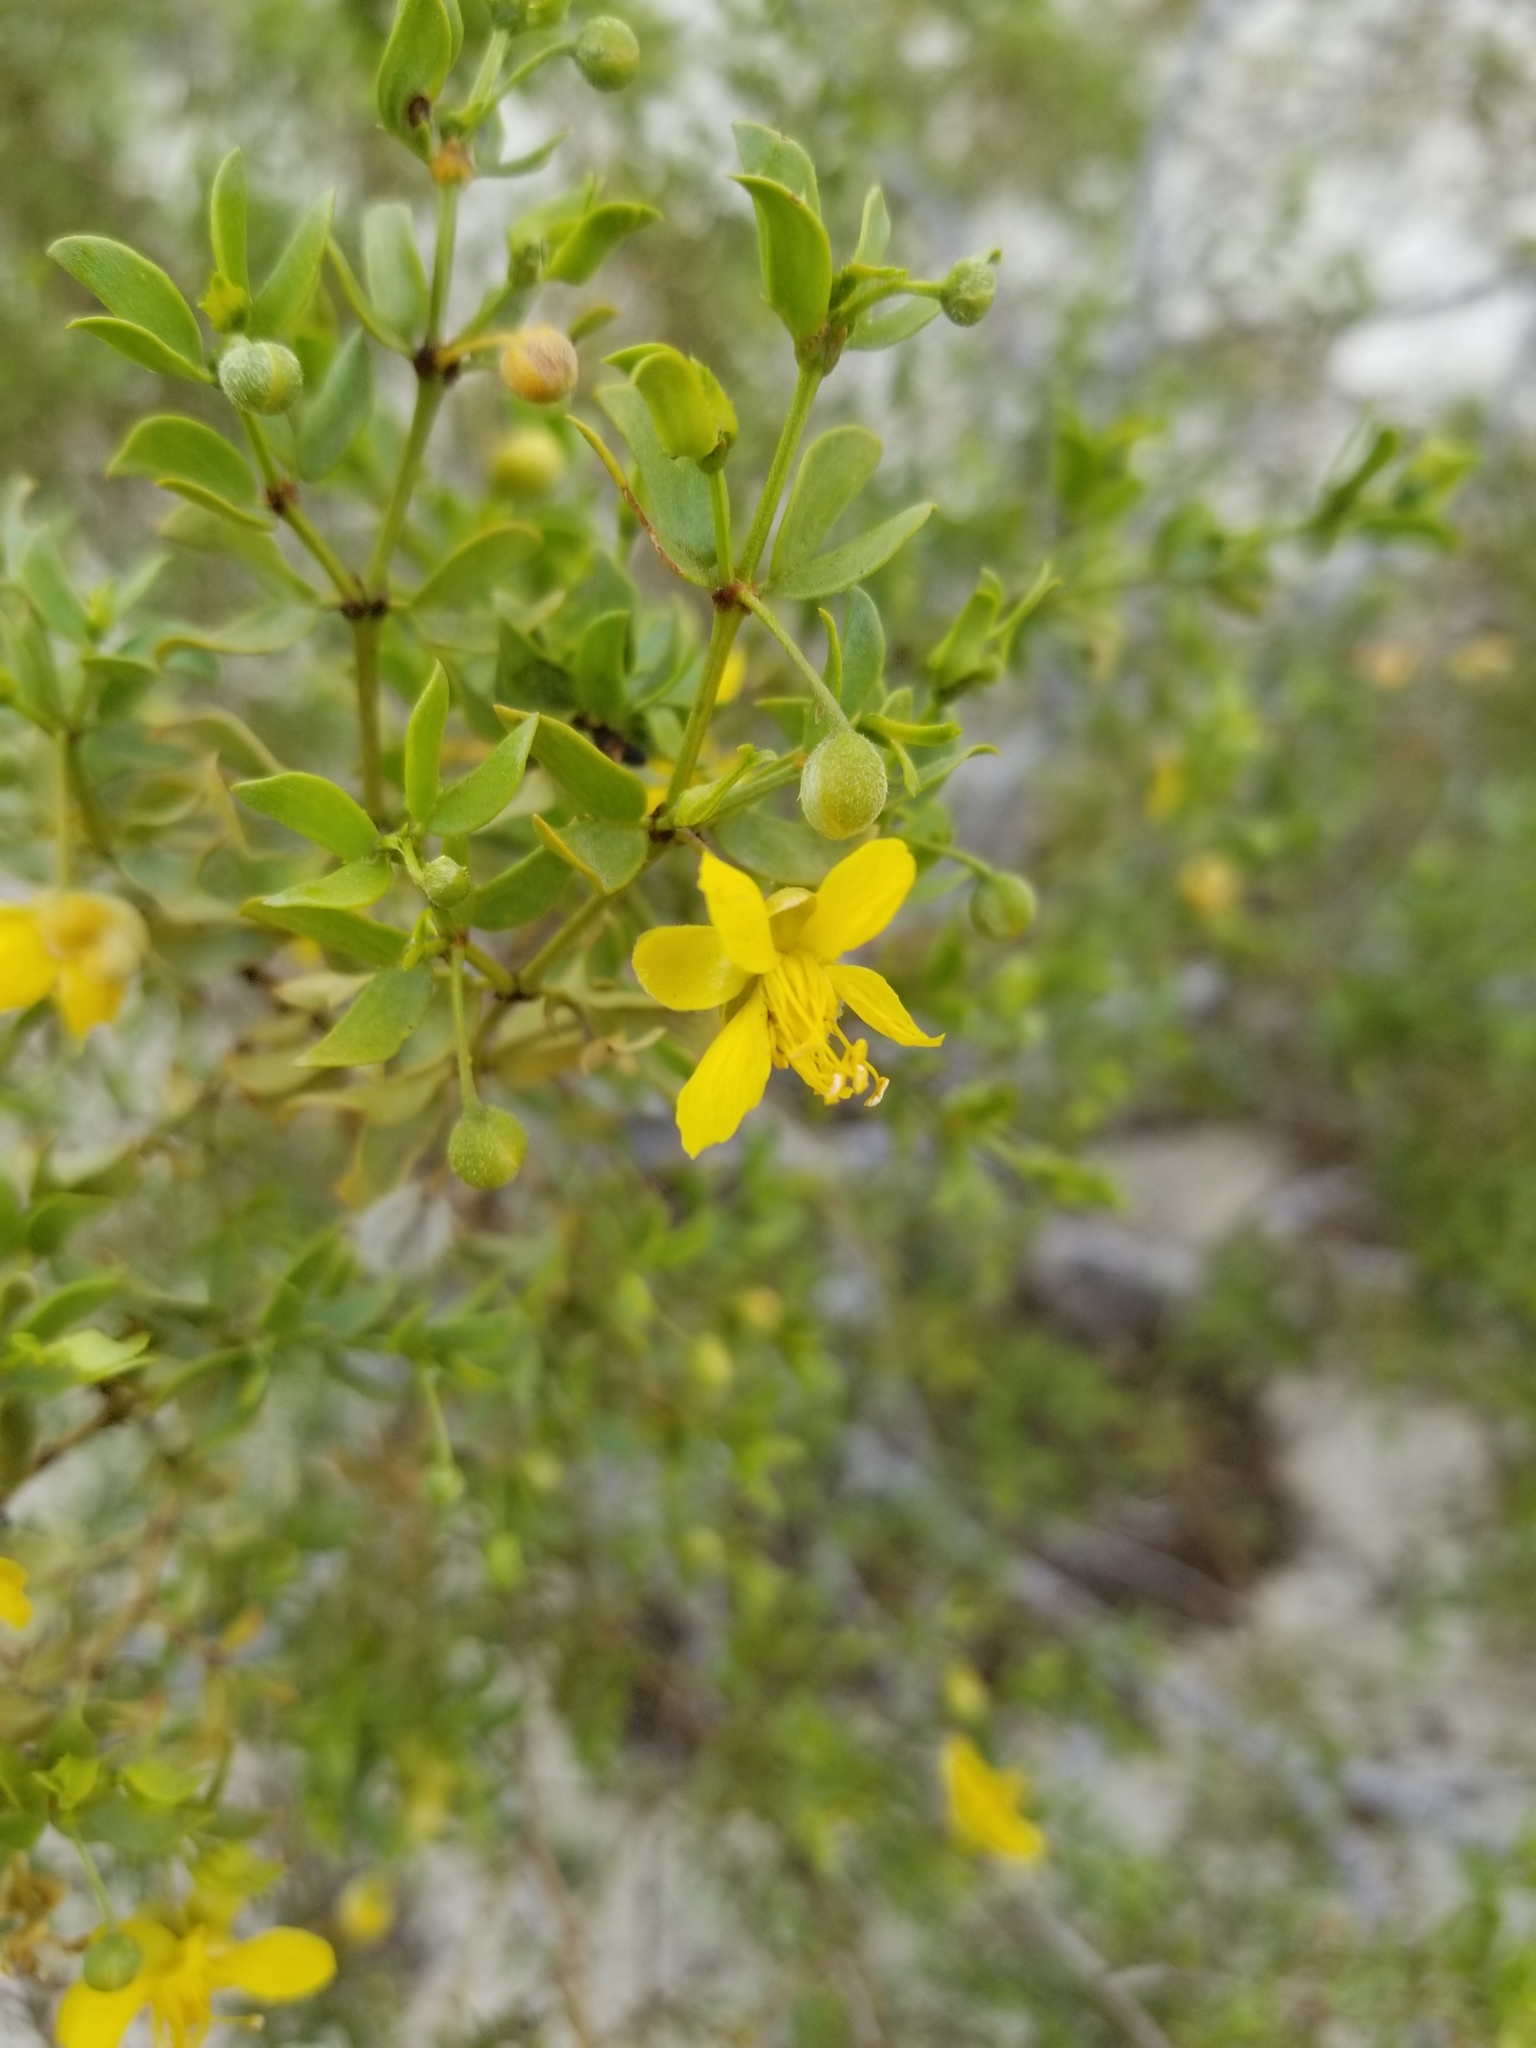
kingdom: Plantae
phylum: Tracheophyta
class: Magnoliopsida
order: Zygophyllales
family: Zygophyllaceae
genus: Larrea
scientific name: Larrea tridentata
